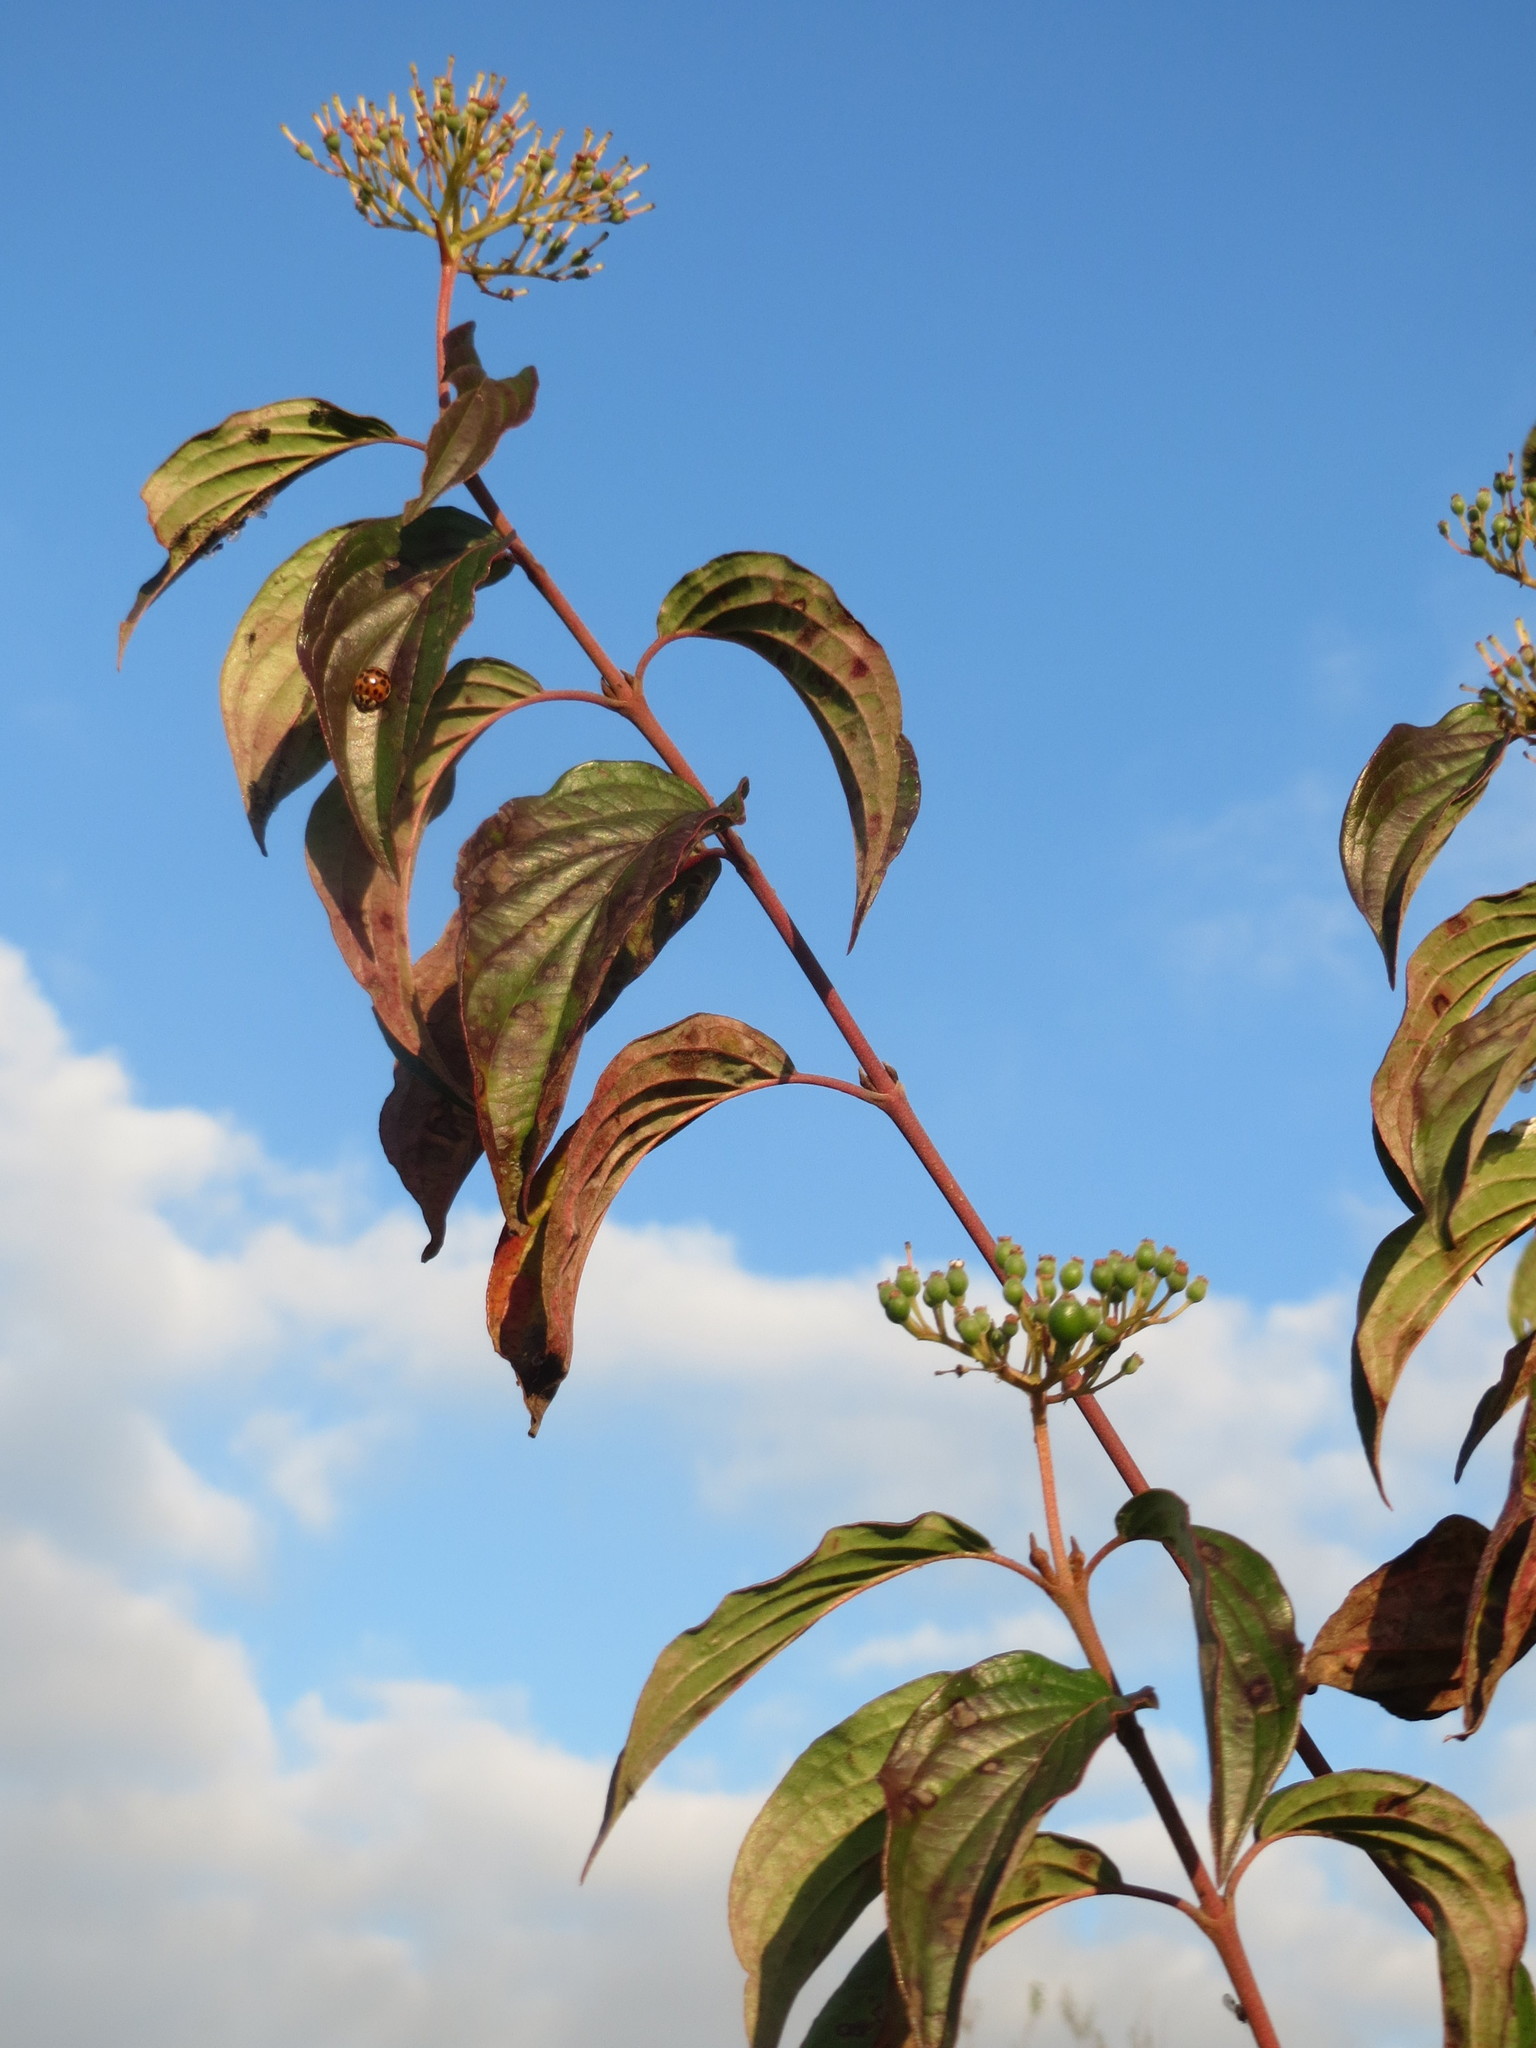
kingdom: Plantae
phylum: Tracheophyta
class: Magnoliopsida
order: Cornales
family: Cornaceae
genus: Cornus
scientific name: Cornus sanguinea
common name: Dogwood
